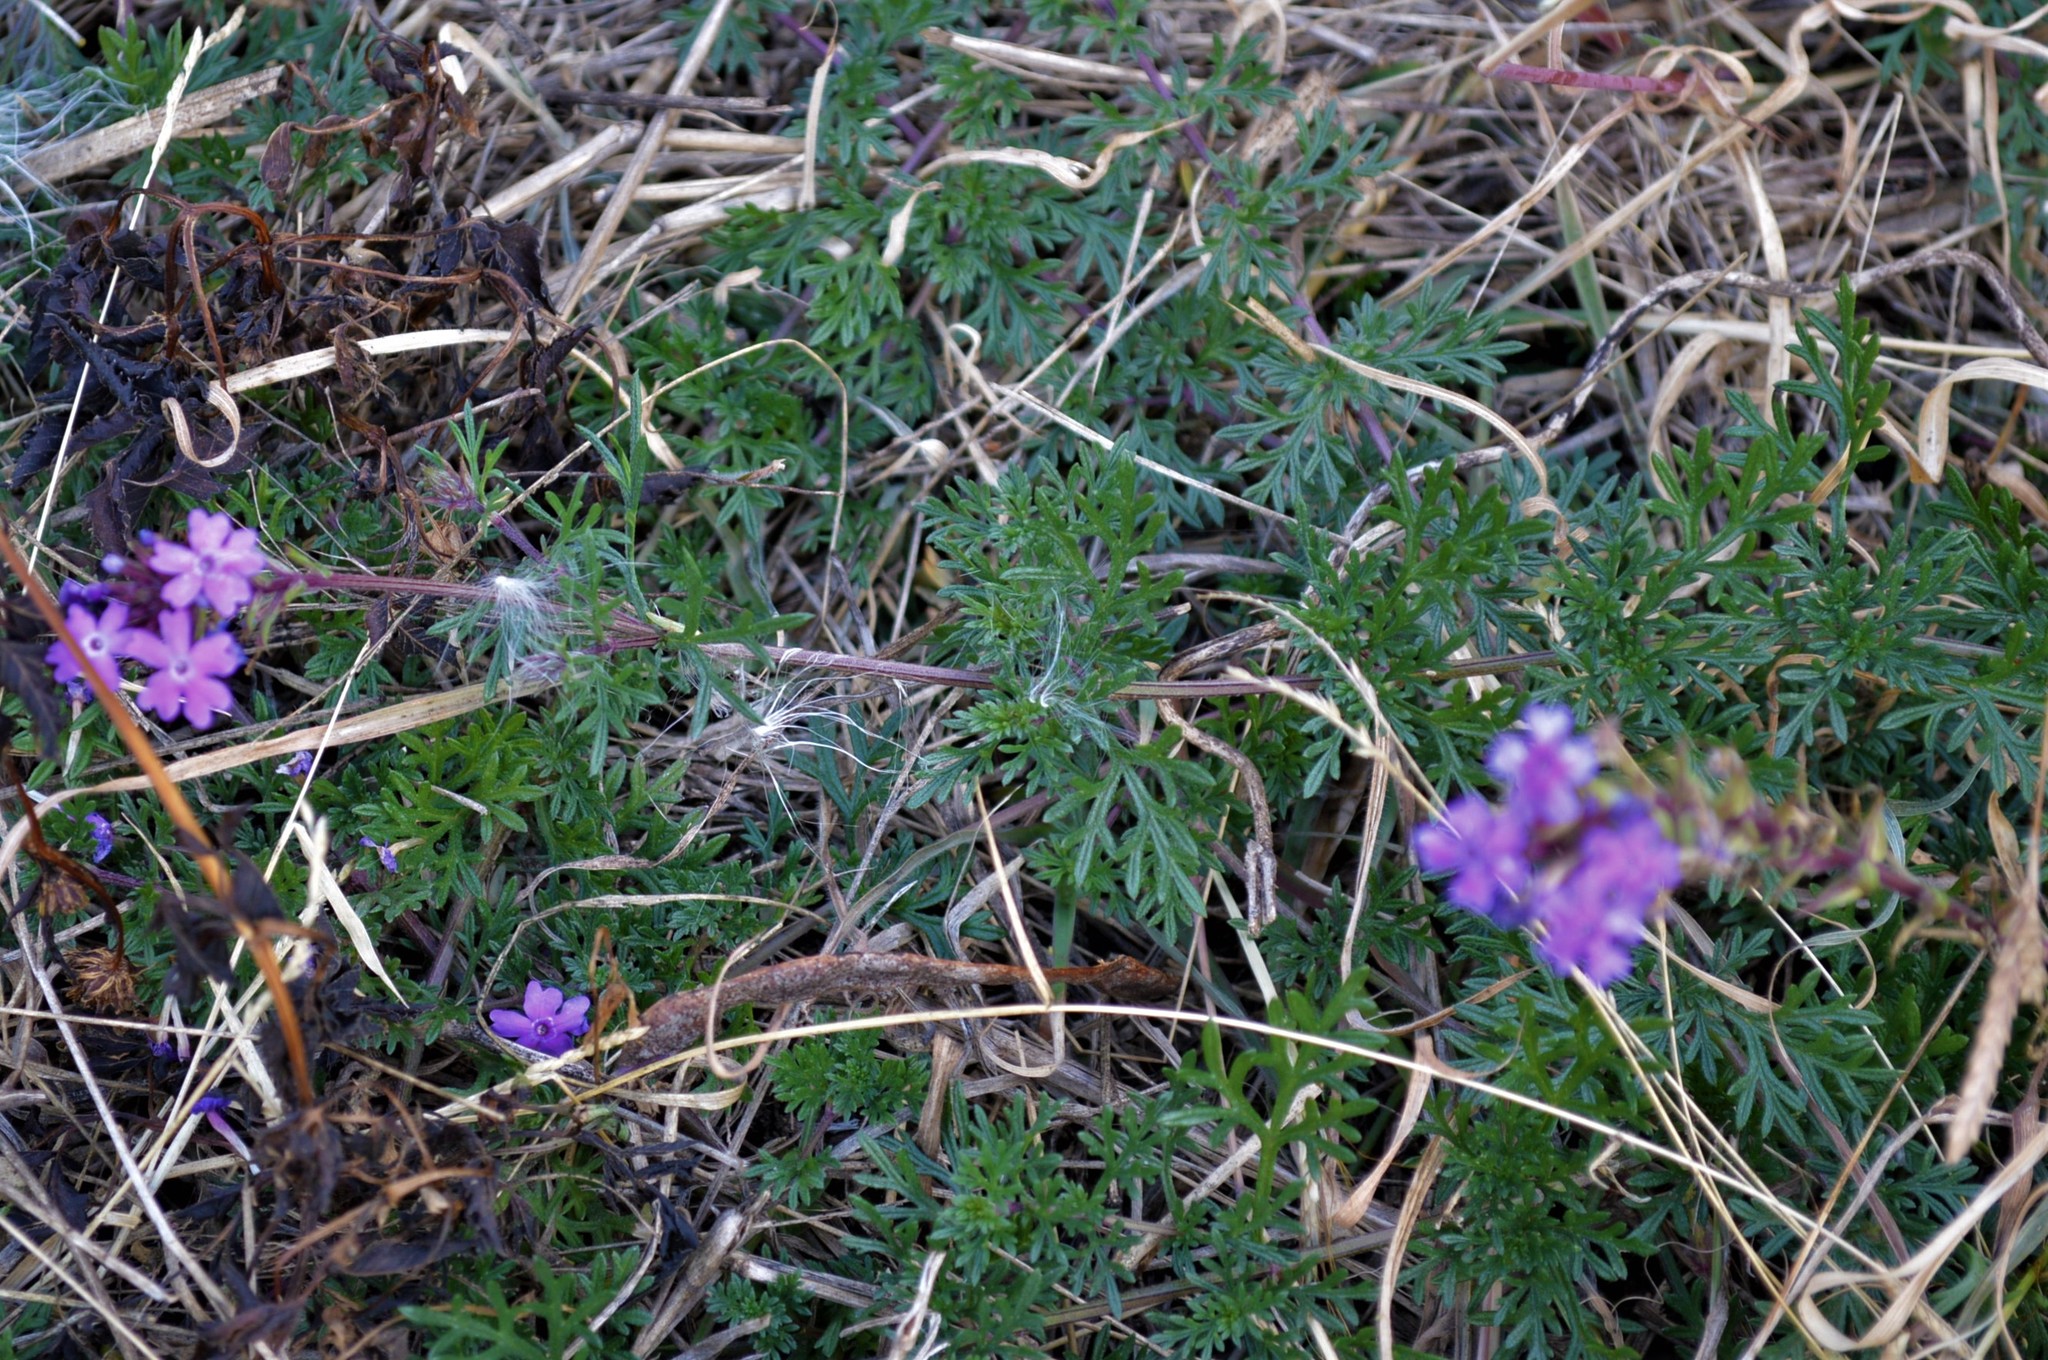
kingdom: Plantae
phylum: Tracheophyta
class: Magnoliopsida
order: Lamiales
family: Verbenaceae
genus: Verbena
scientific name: Verbena aristigera
